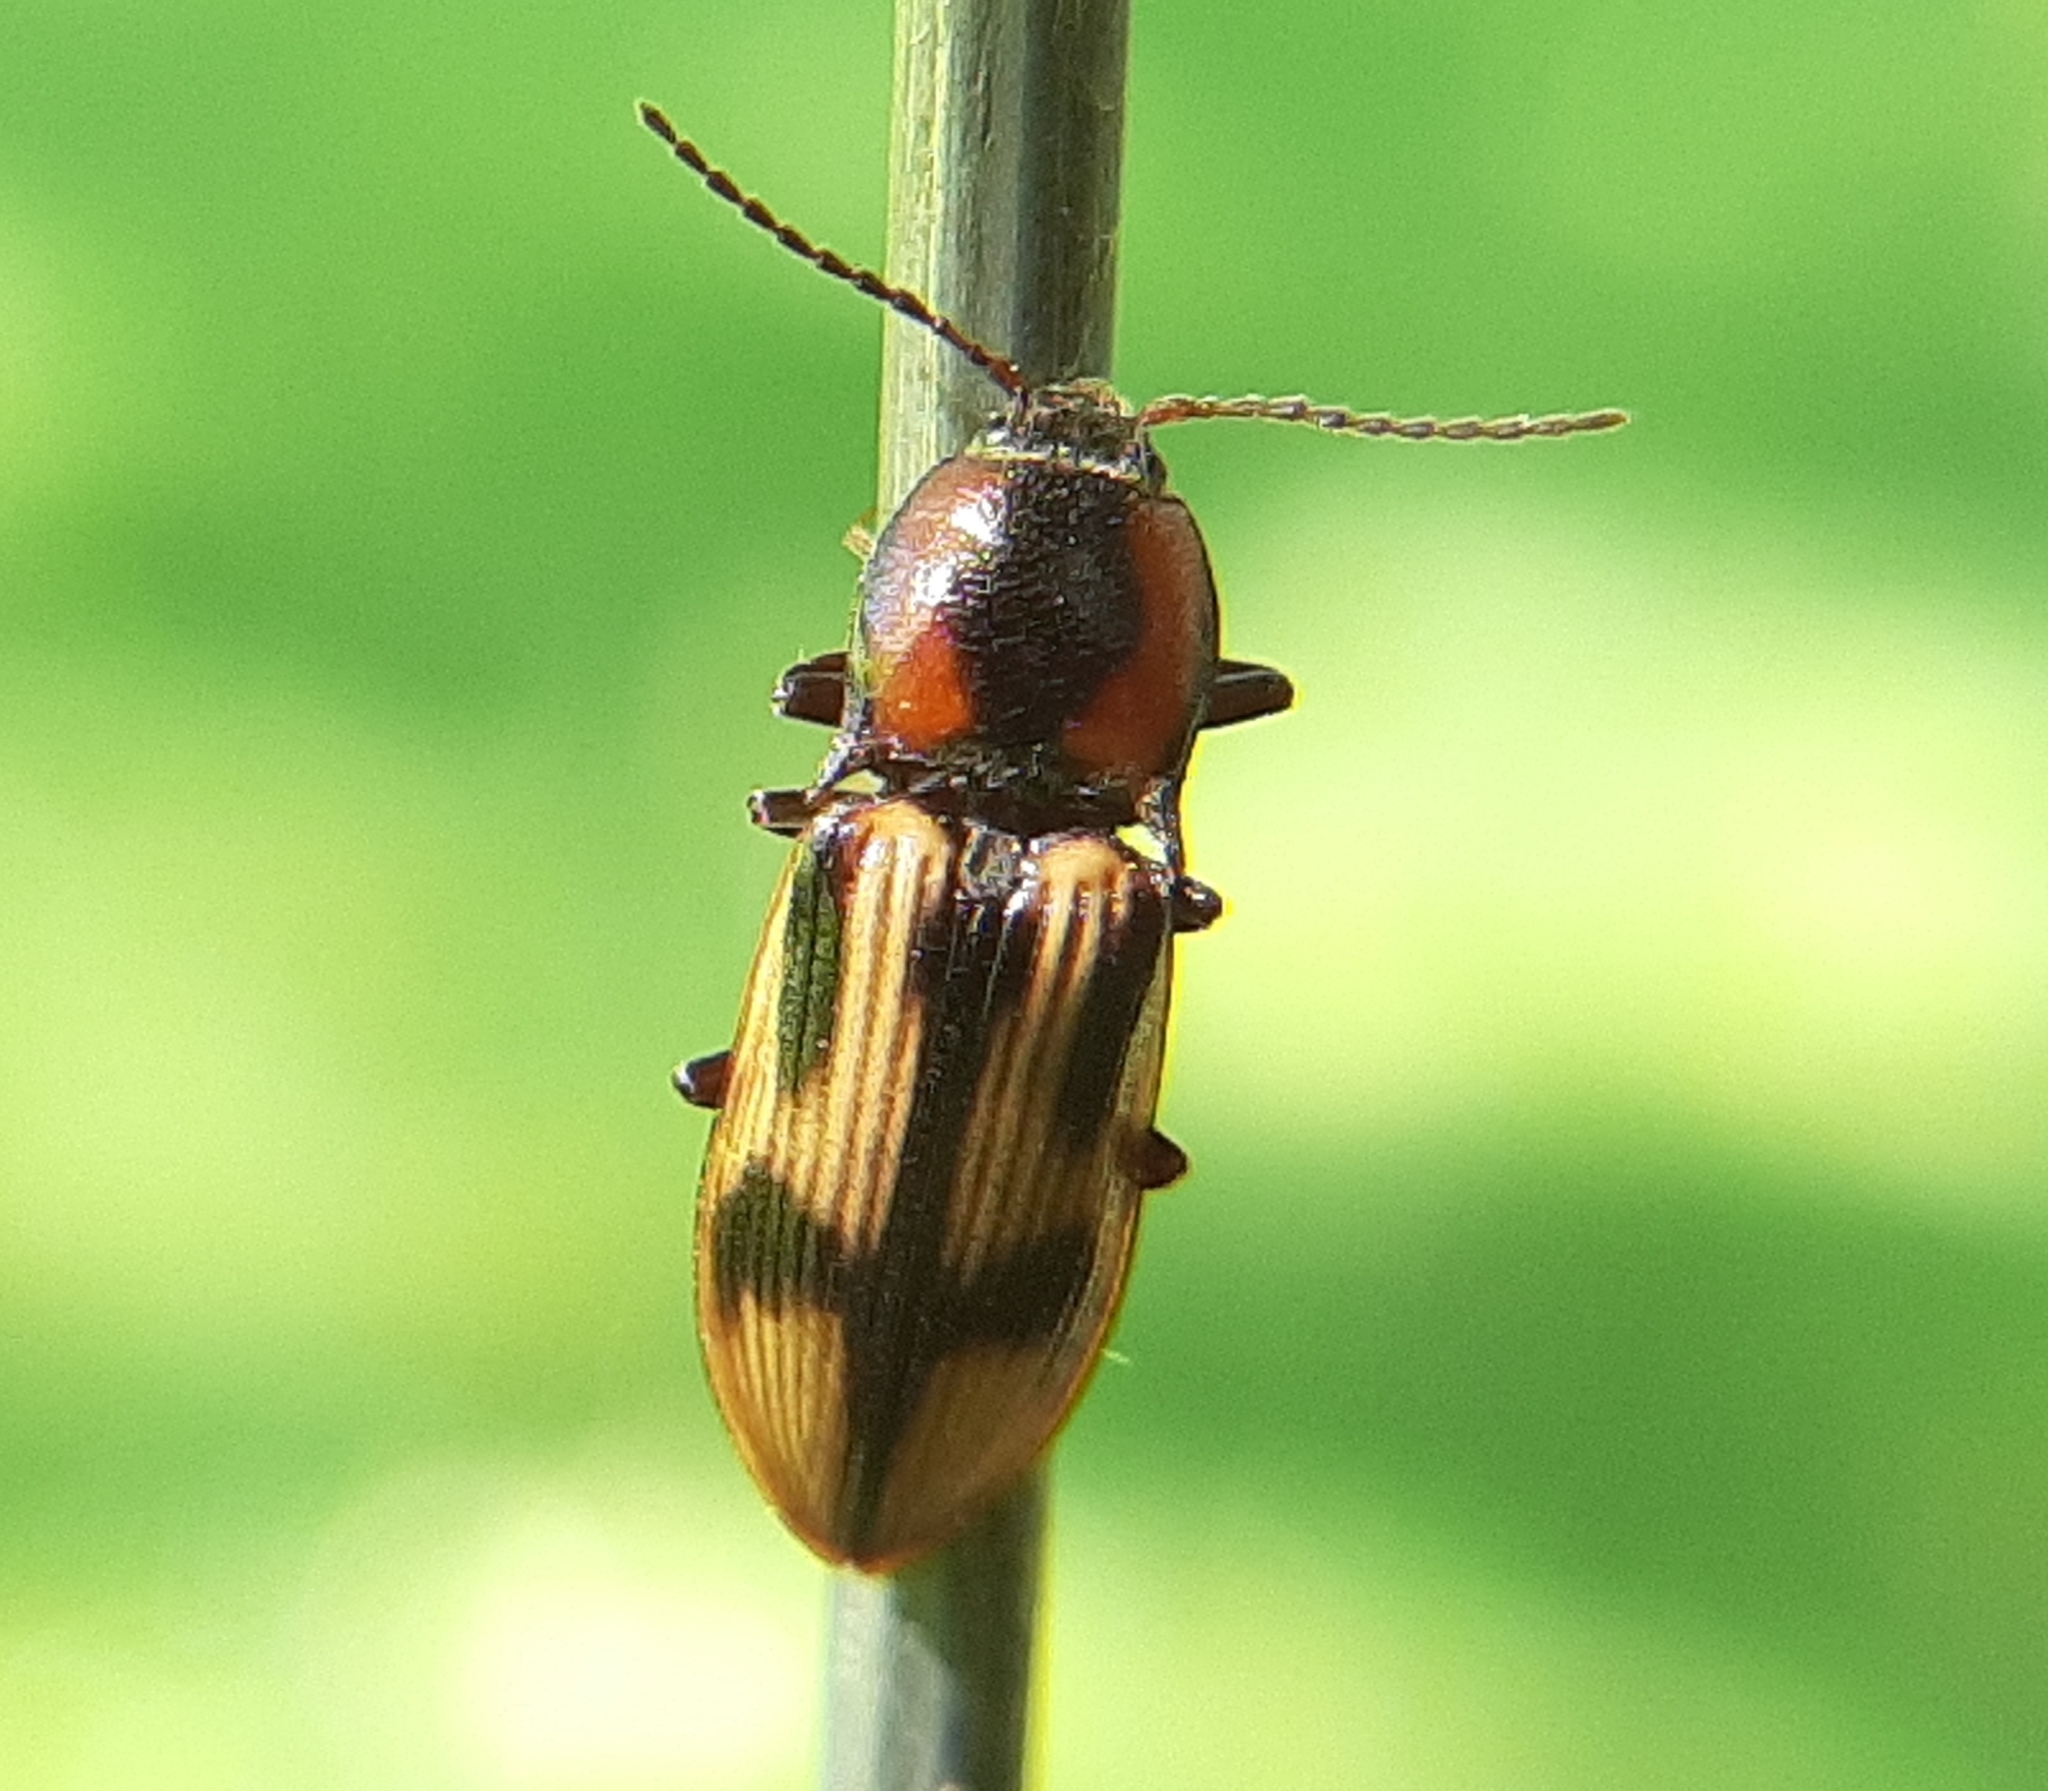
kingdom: Animalia
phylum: Arthropoda
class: Insecta
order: Coleoptera
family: Elateridae
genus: Selatosomus
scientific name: Selatosomus pulcher
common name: Noble click beetle
